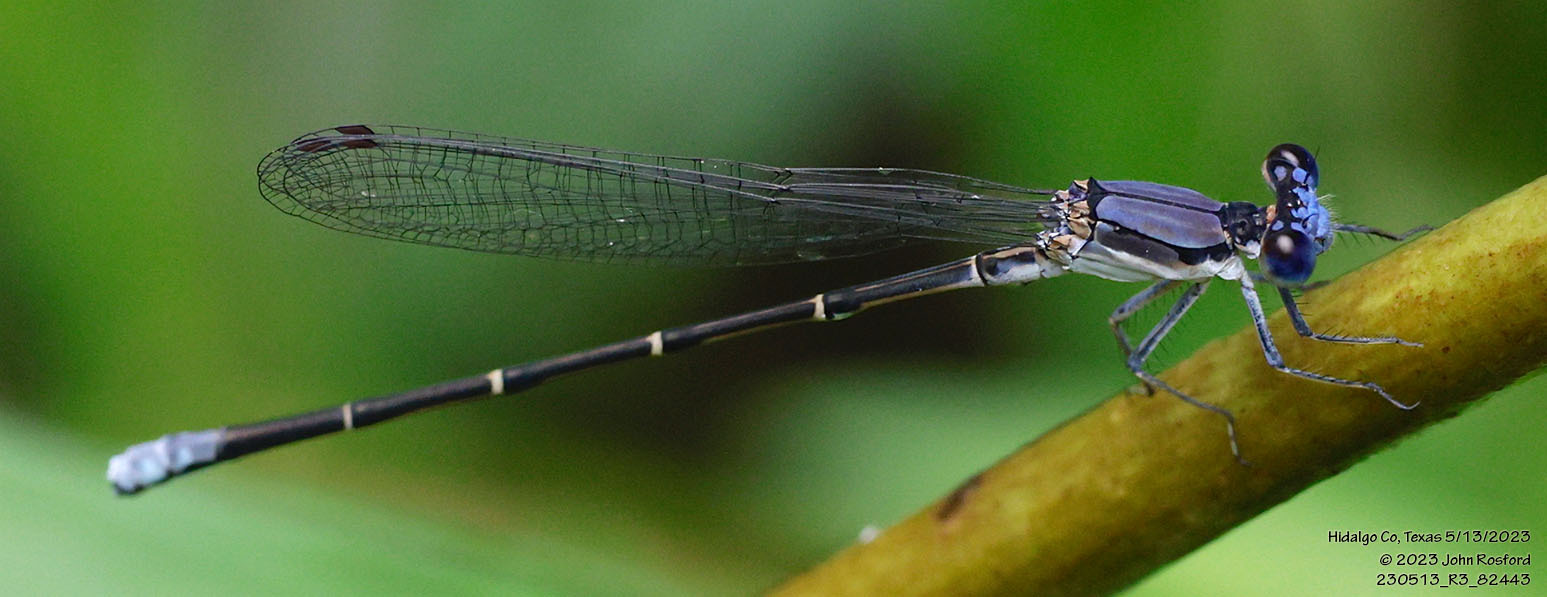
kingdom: Animalia
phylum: Arthropoda
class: Insecta
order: Odonata
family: Coenagrionidae
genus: Argia
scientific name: Argia apicalis
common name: Blue-fronted dancer
